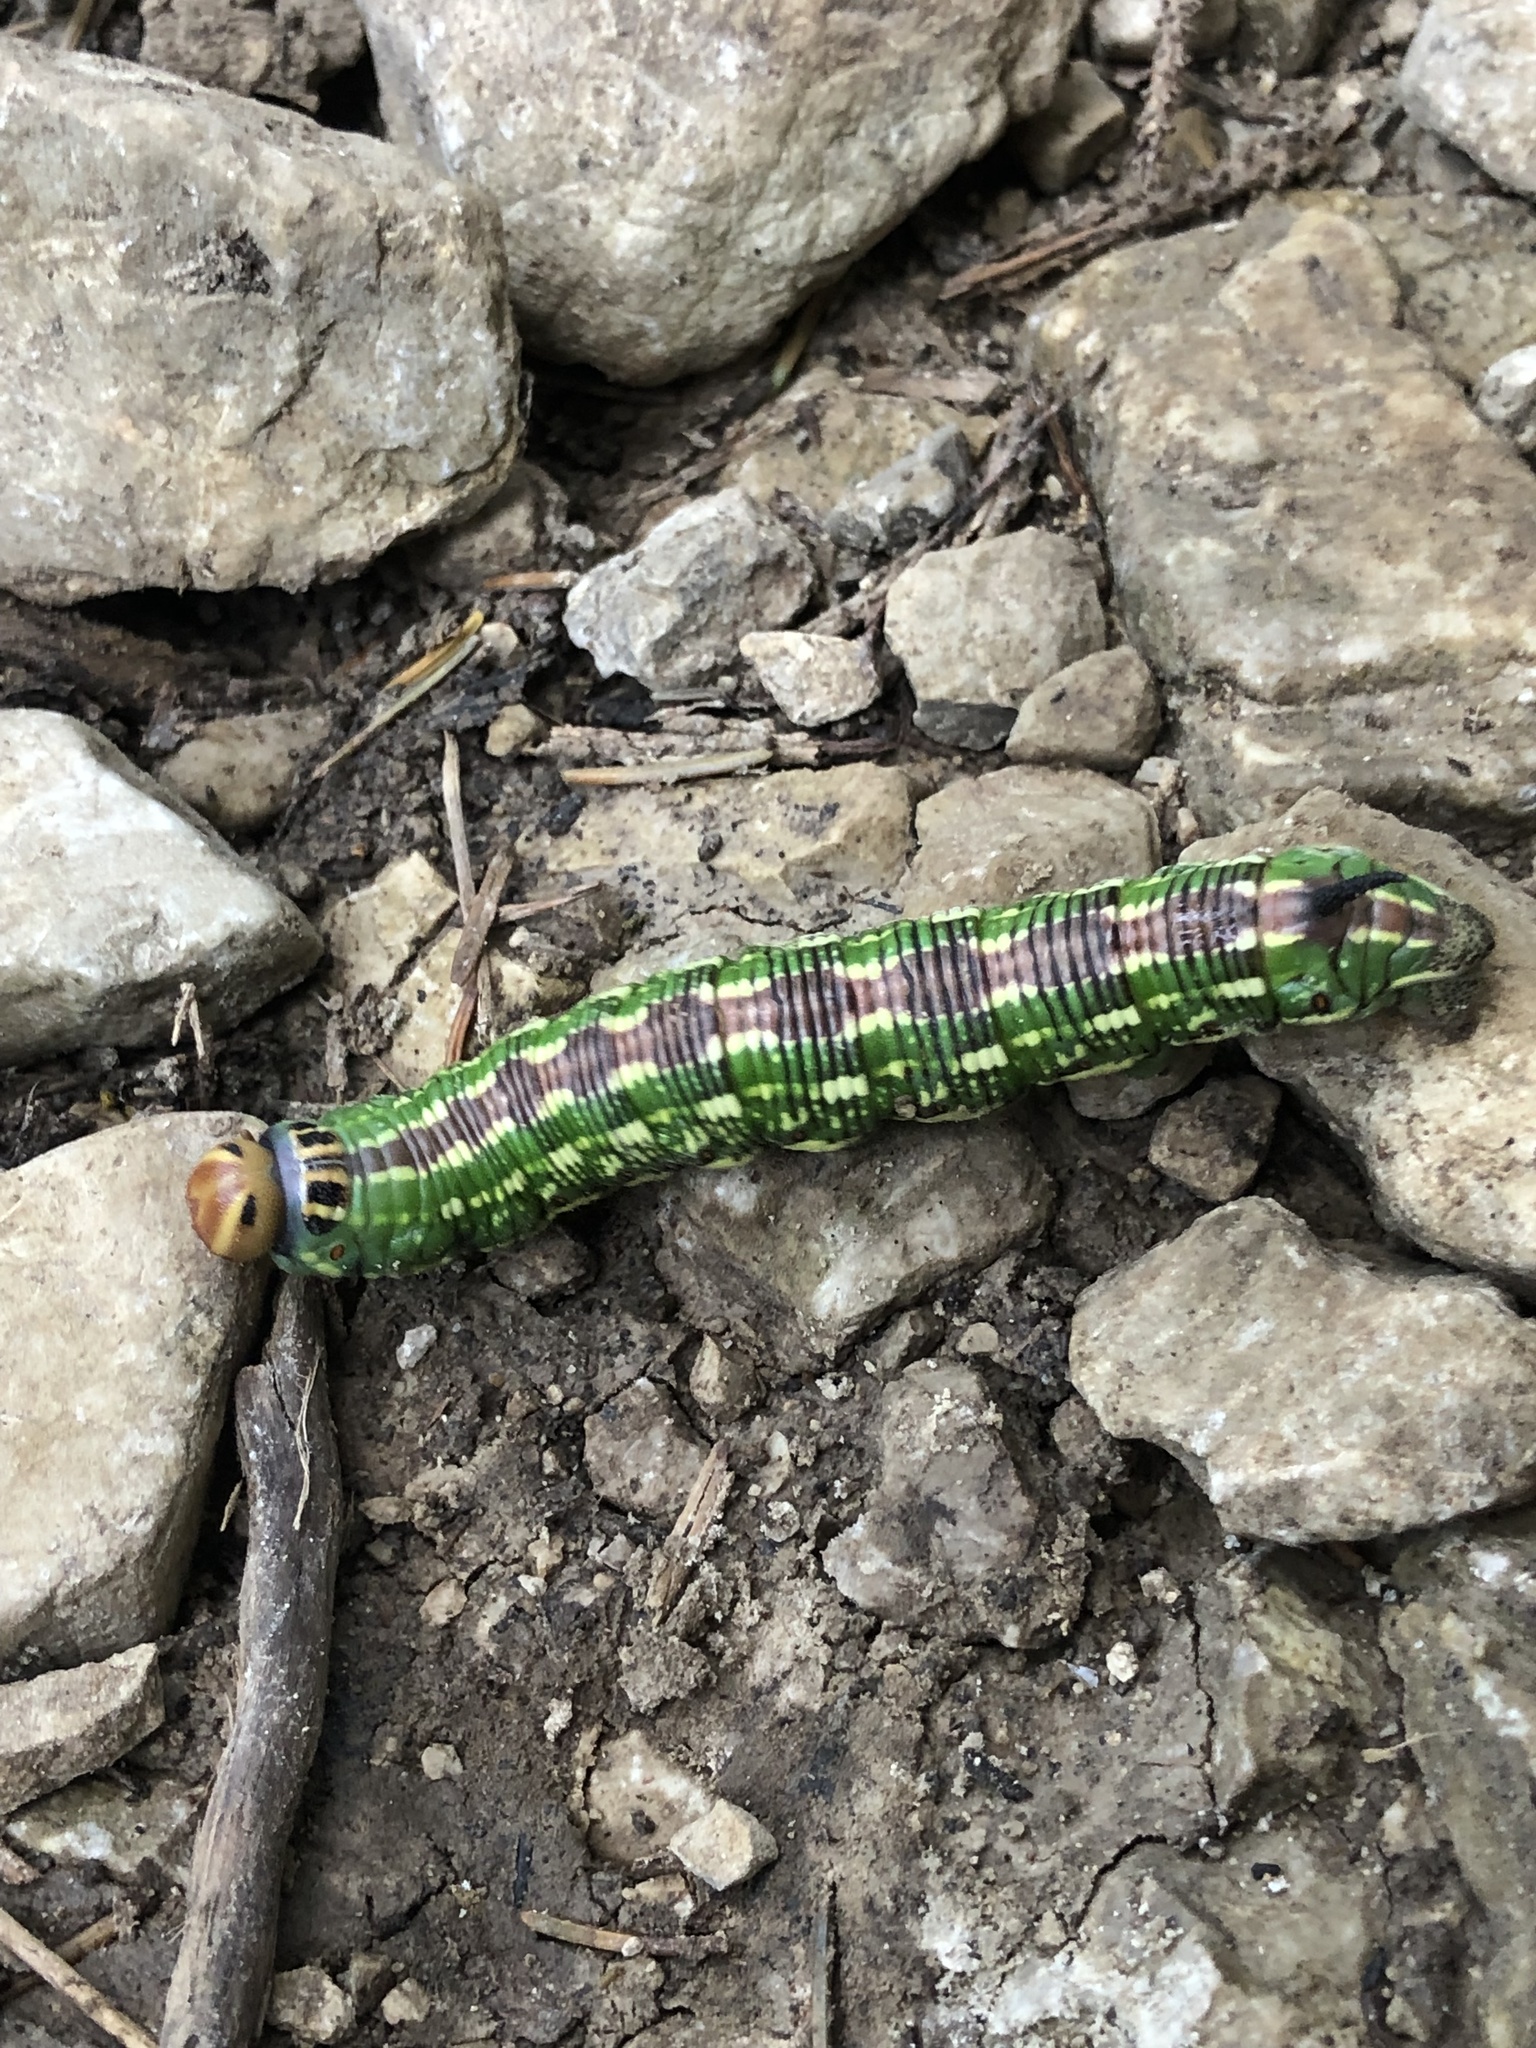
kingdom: Animalia
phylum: Arthropoda
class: Insecta
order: Lepidoptera
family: Sphingidae
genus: Sphinx
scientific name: Sphinx pinastri
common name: Pine hawk-moth
